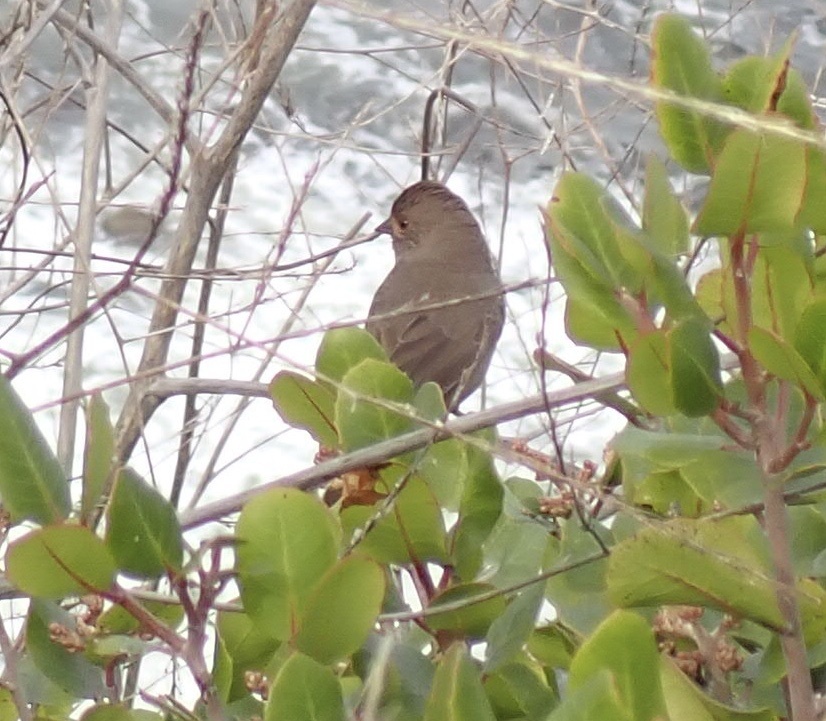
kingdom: Animalia
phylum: Chordata
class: Aves
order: Passeriformes
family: Passerellidae
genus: Melozone
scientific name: Melozone crissalis
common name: California towhee
